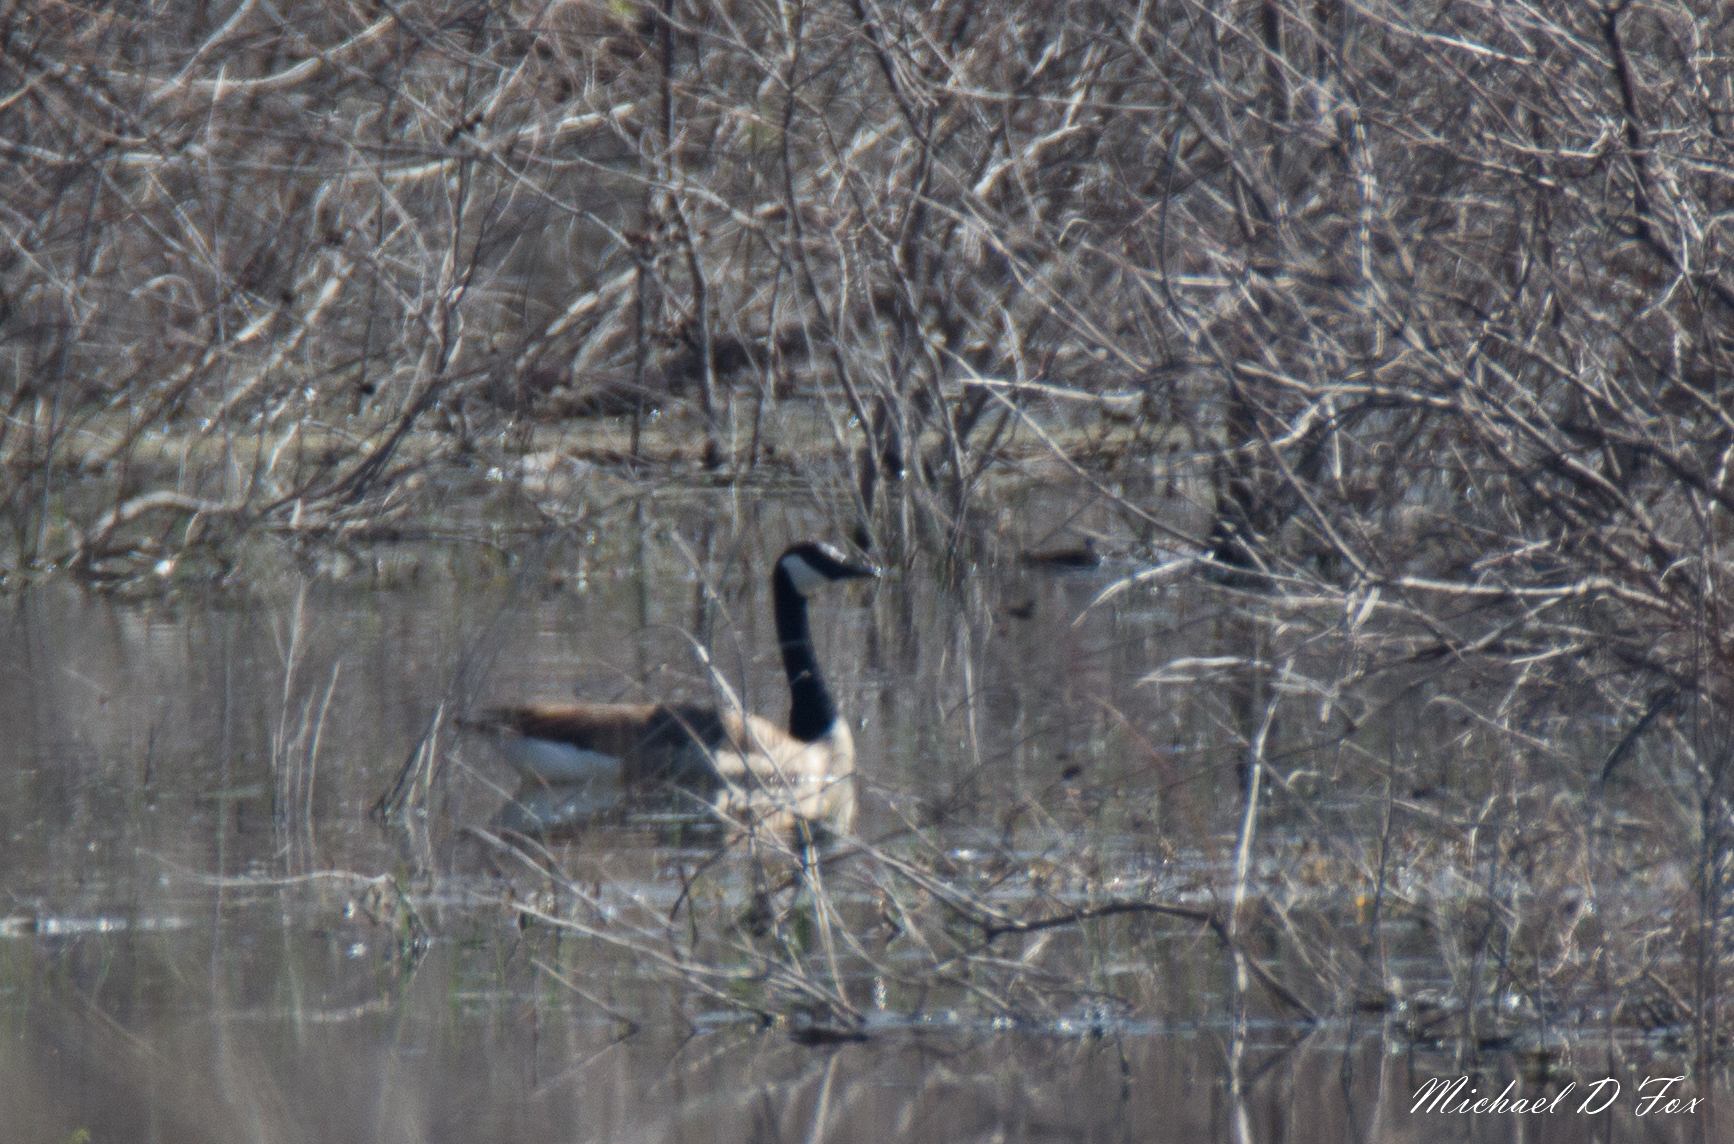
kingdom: Animalia
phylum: Chordata
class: Aves
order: Anseriformes
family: Anatidae
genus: Branta
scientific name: Branta canadensis
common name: Canada goose
